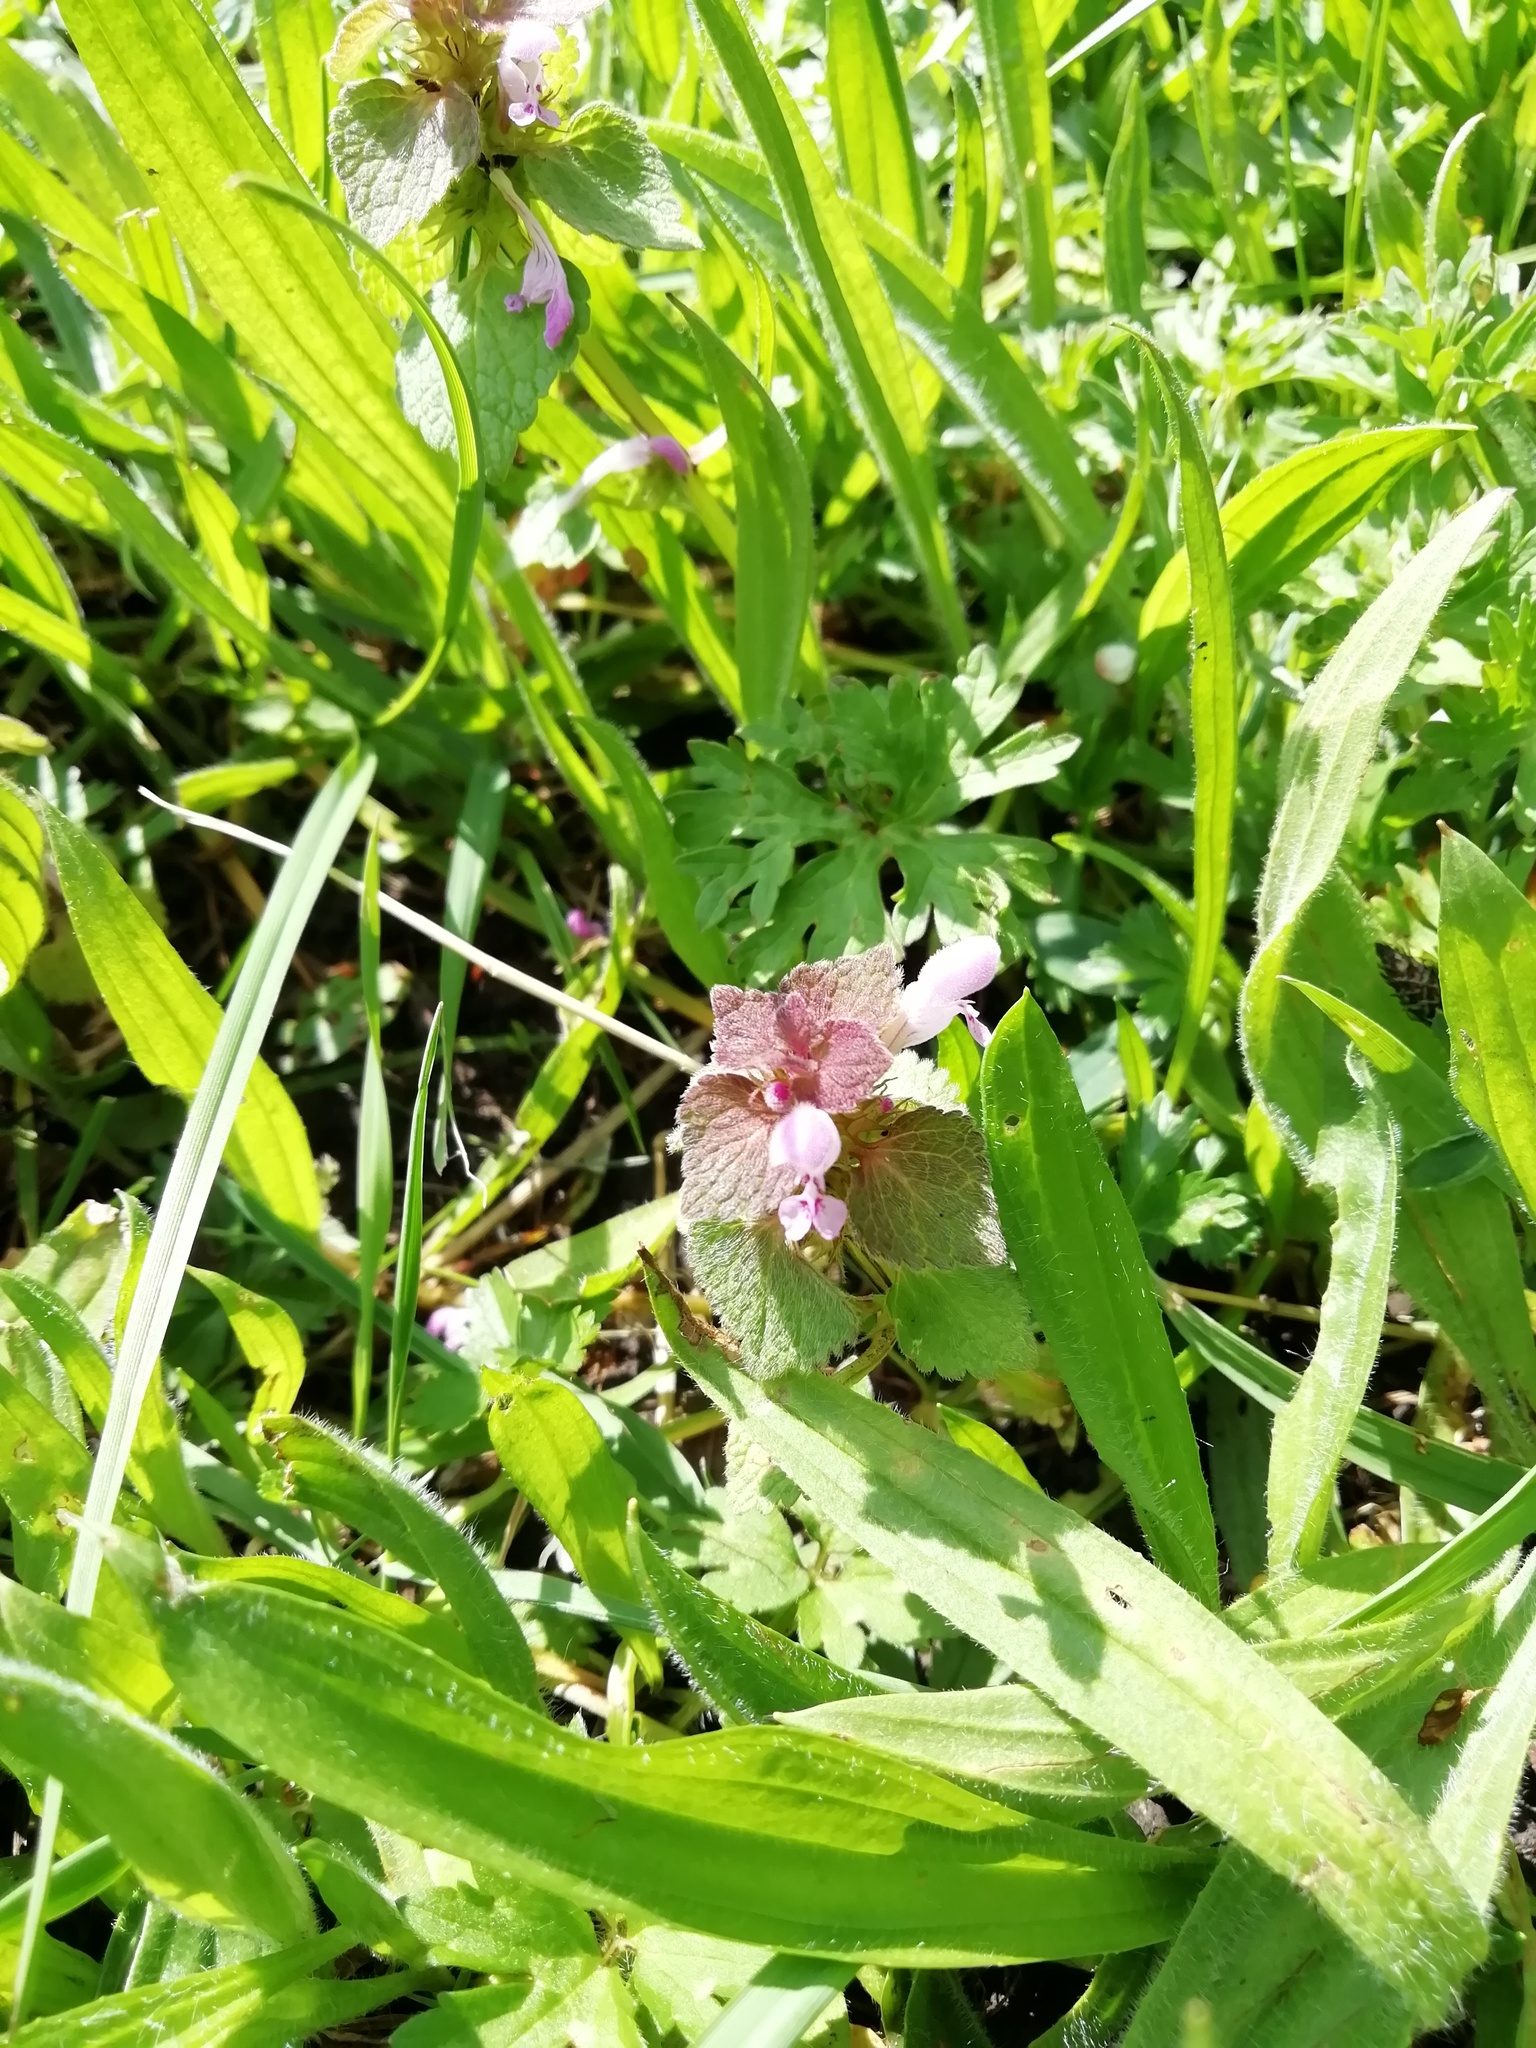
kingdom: Plantae
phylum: Tracheophyta
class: Magnoliopsida
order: Lamiales
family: Lamiaceae
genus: Lamium
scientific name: Lamium purpureum
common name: Red dead-nettle
